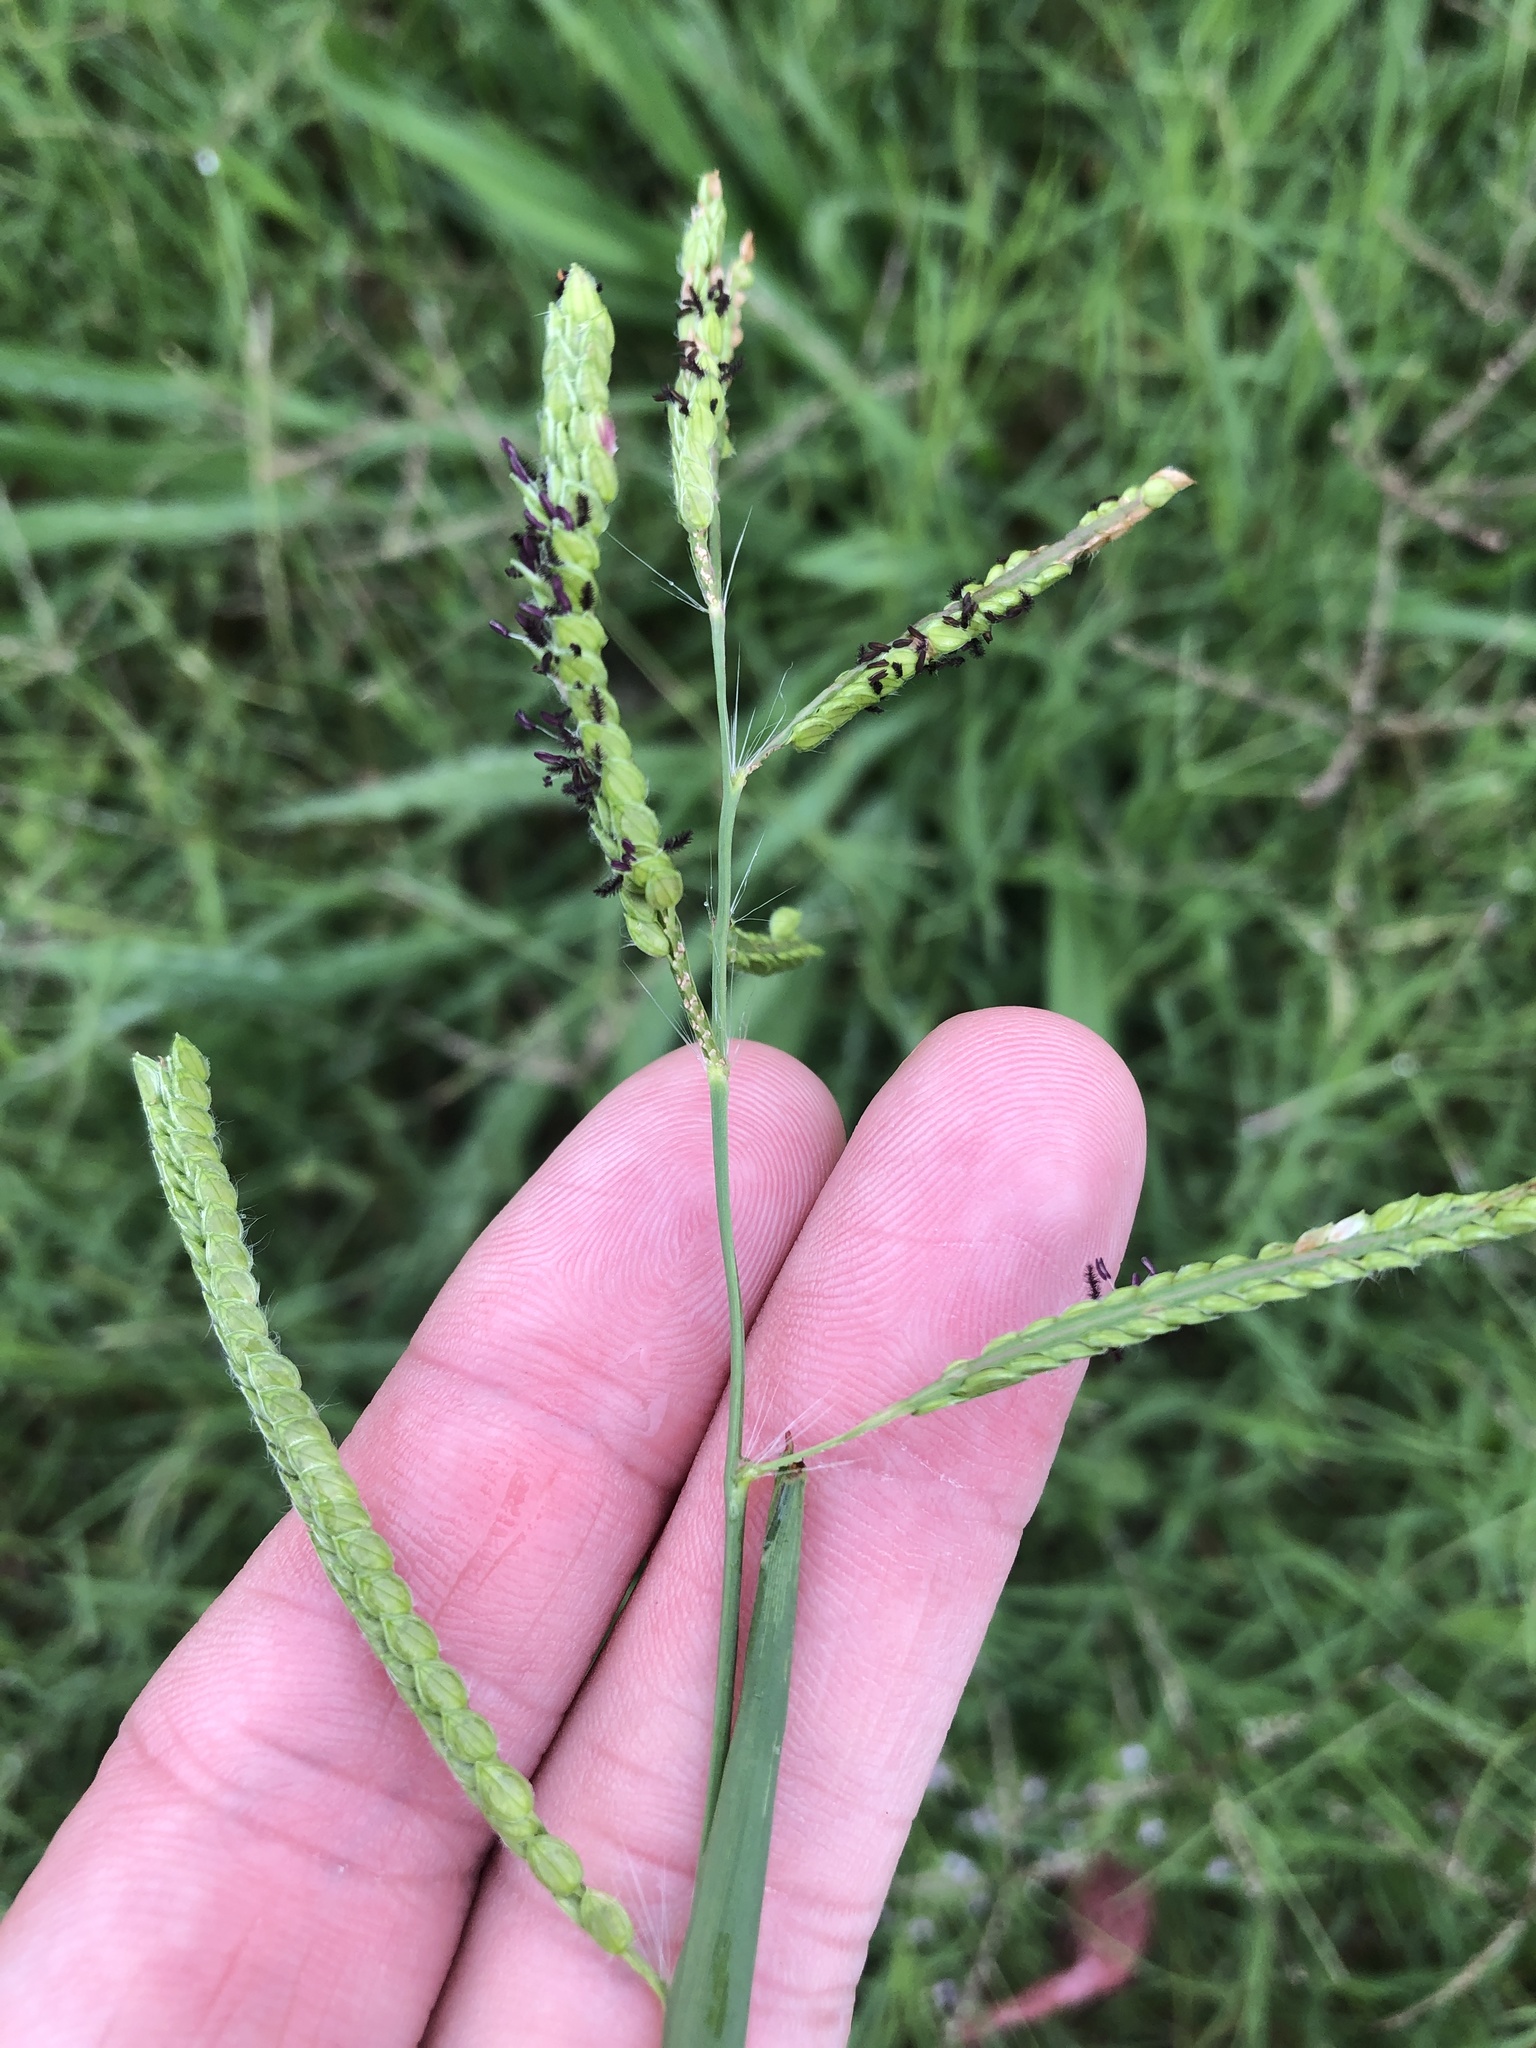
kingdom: Plantae
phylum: Tracheophyta
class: Liliopsida
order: Poales
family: Poaceae
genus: Paspalum
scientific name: Paspalum dilatatum
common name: Dallisgrass
